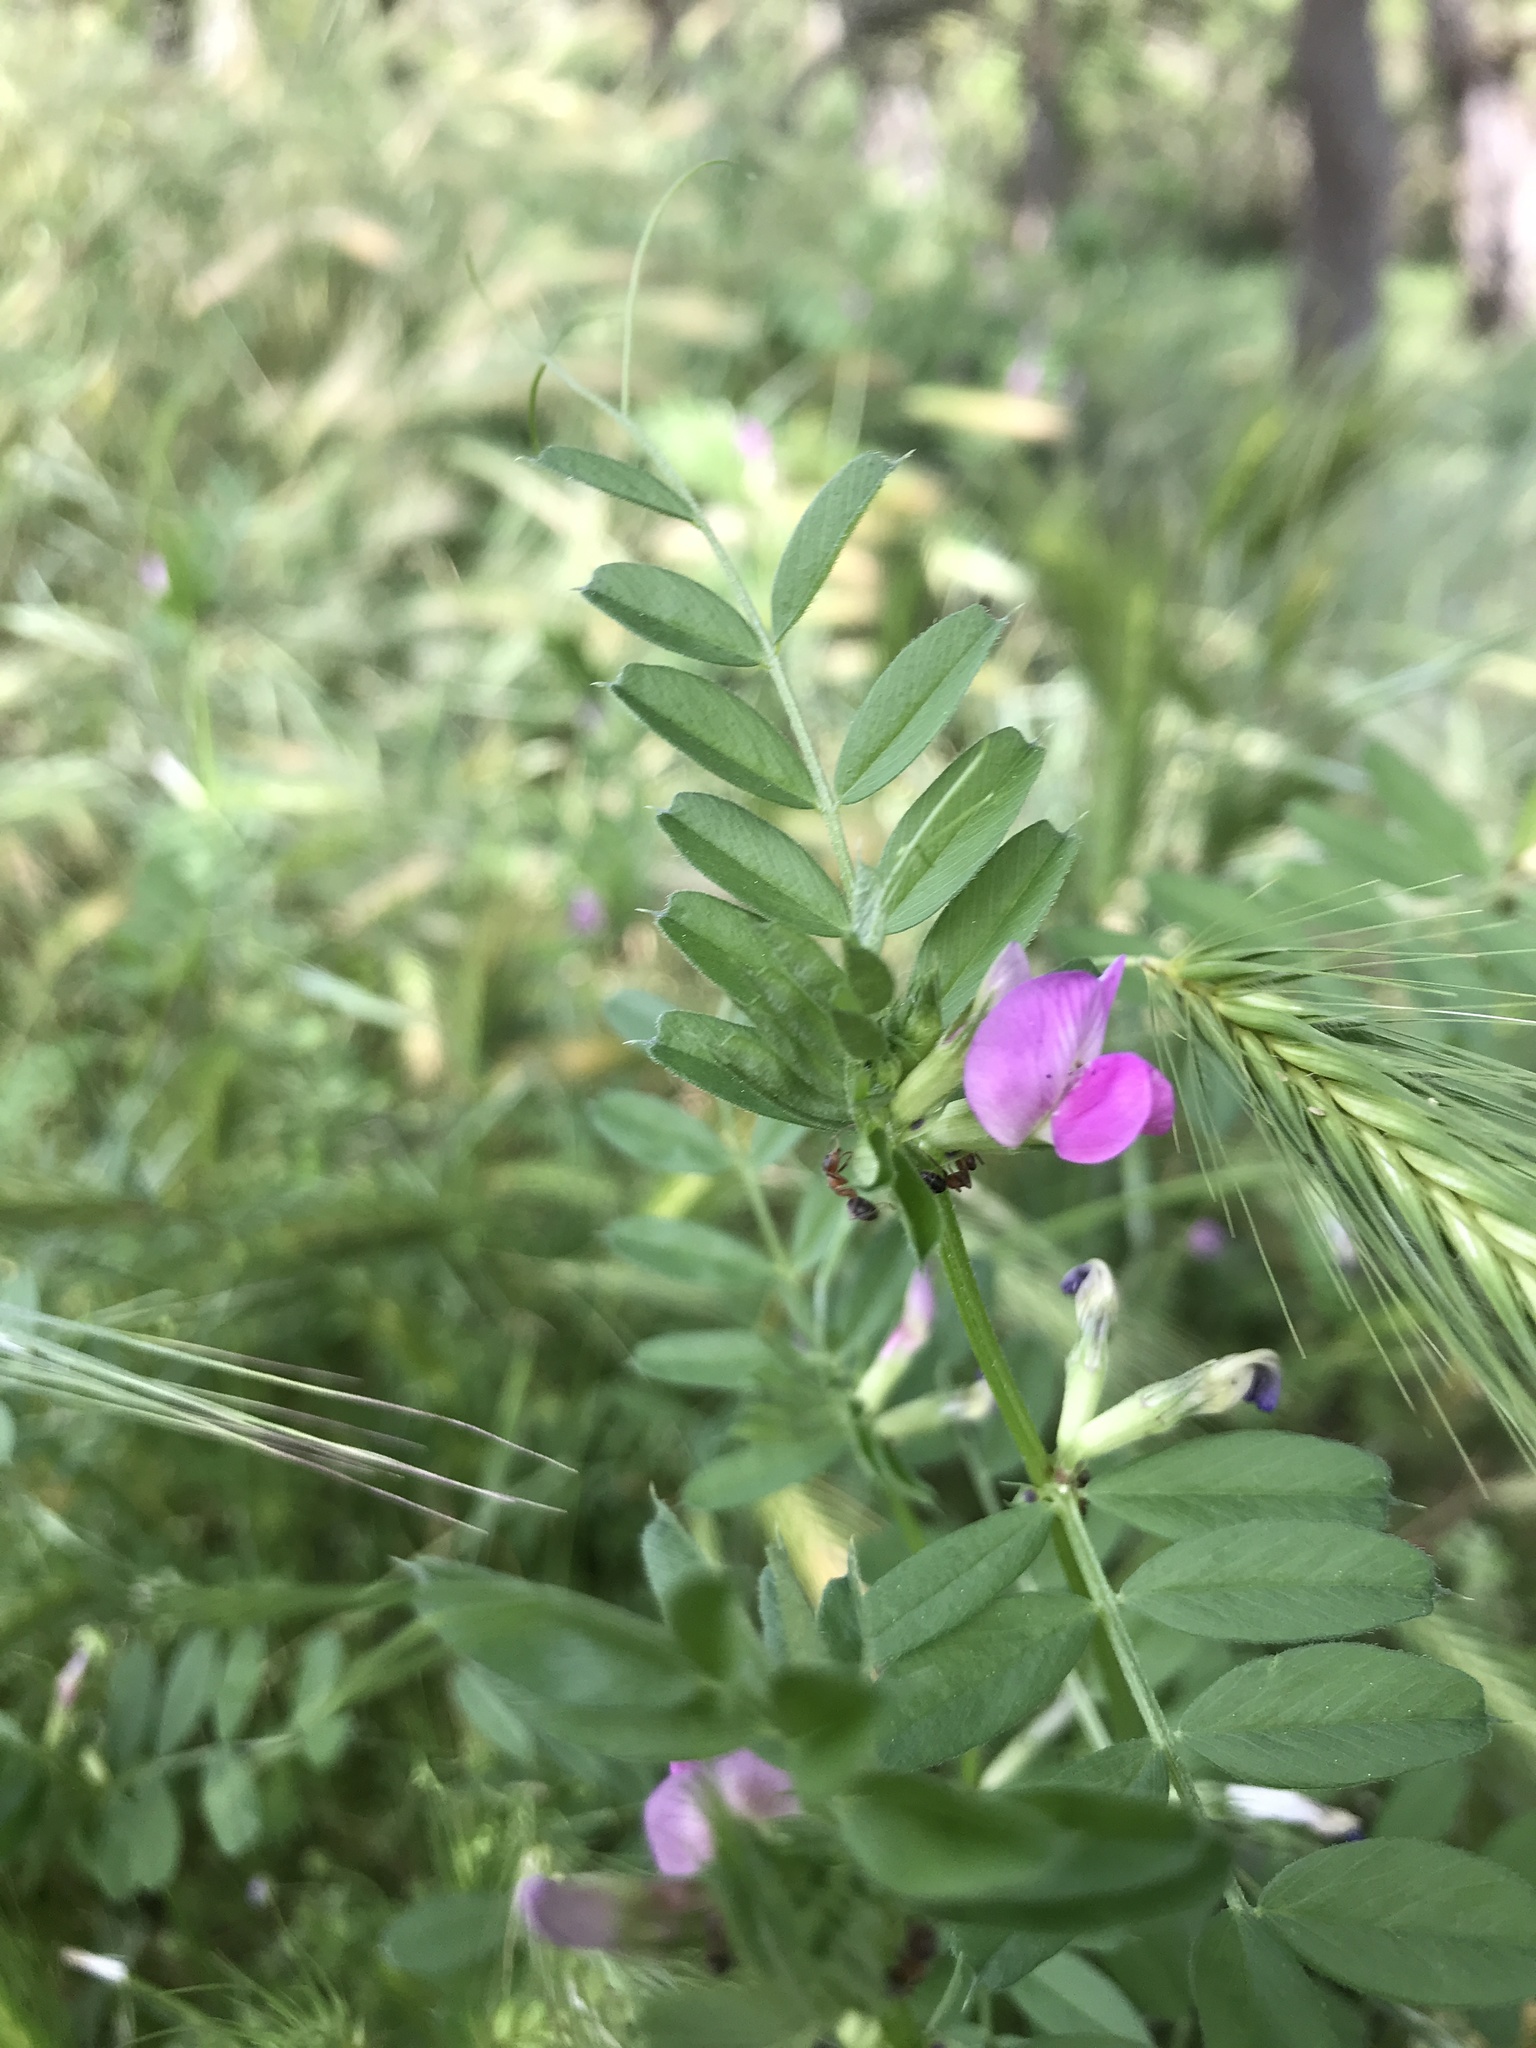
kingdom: Plantae
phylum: Tracheophyta
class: Magnoliopsida
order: Fabales
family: Fabaceae
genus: Vicia
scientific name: Vicia sativa
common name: Garden vetch
